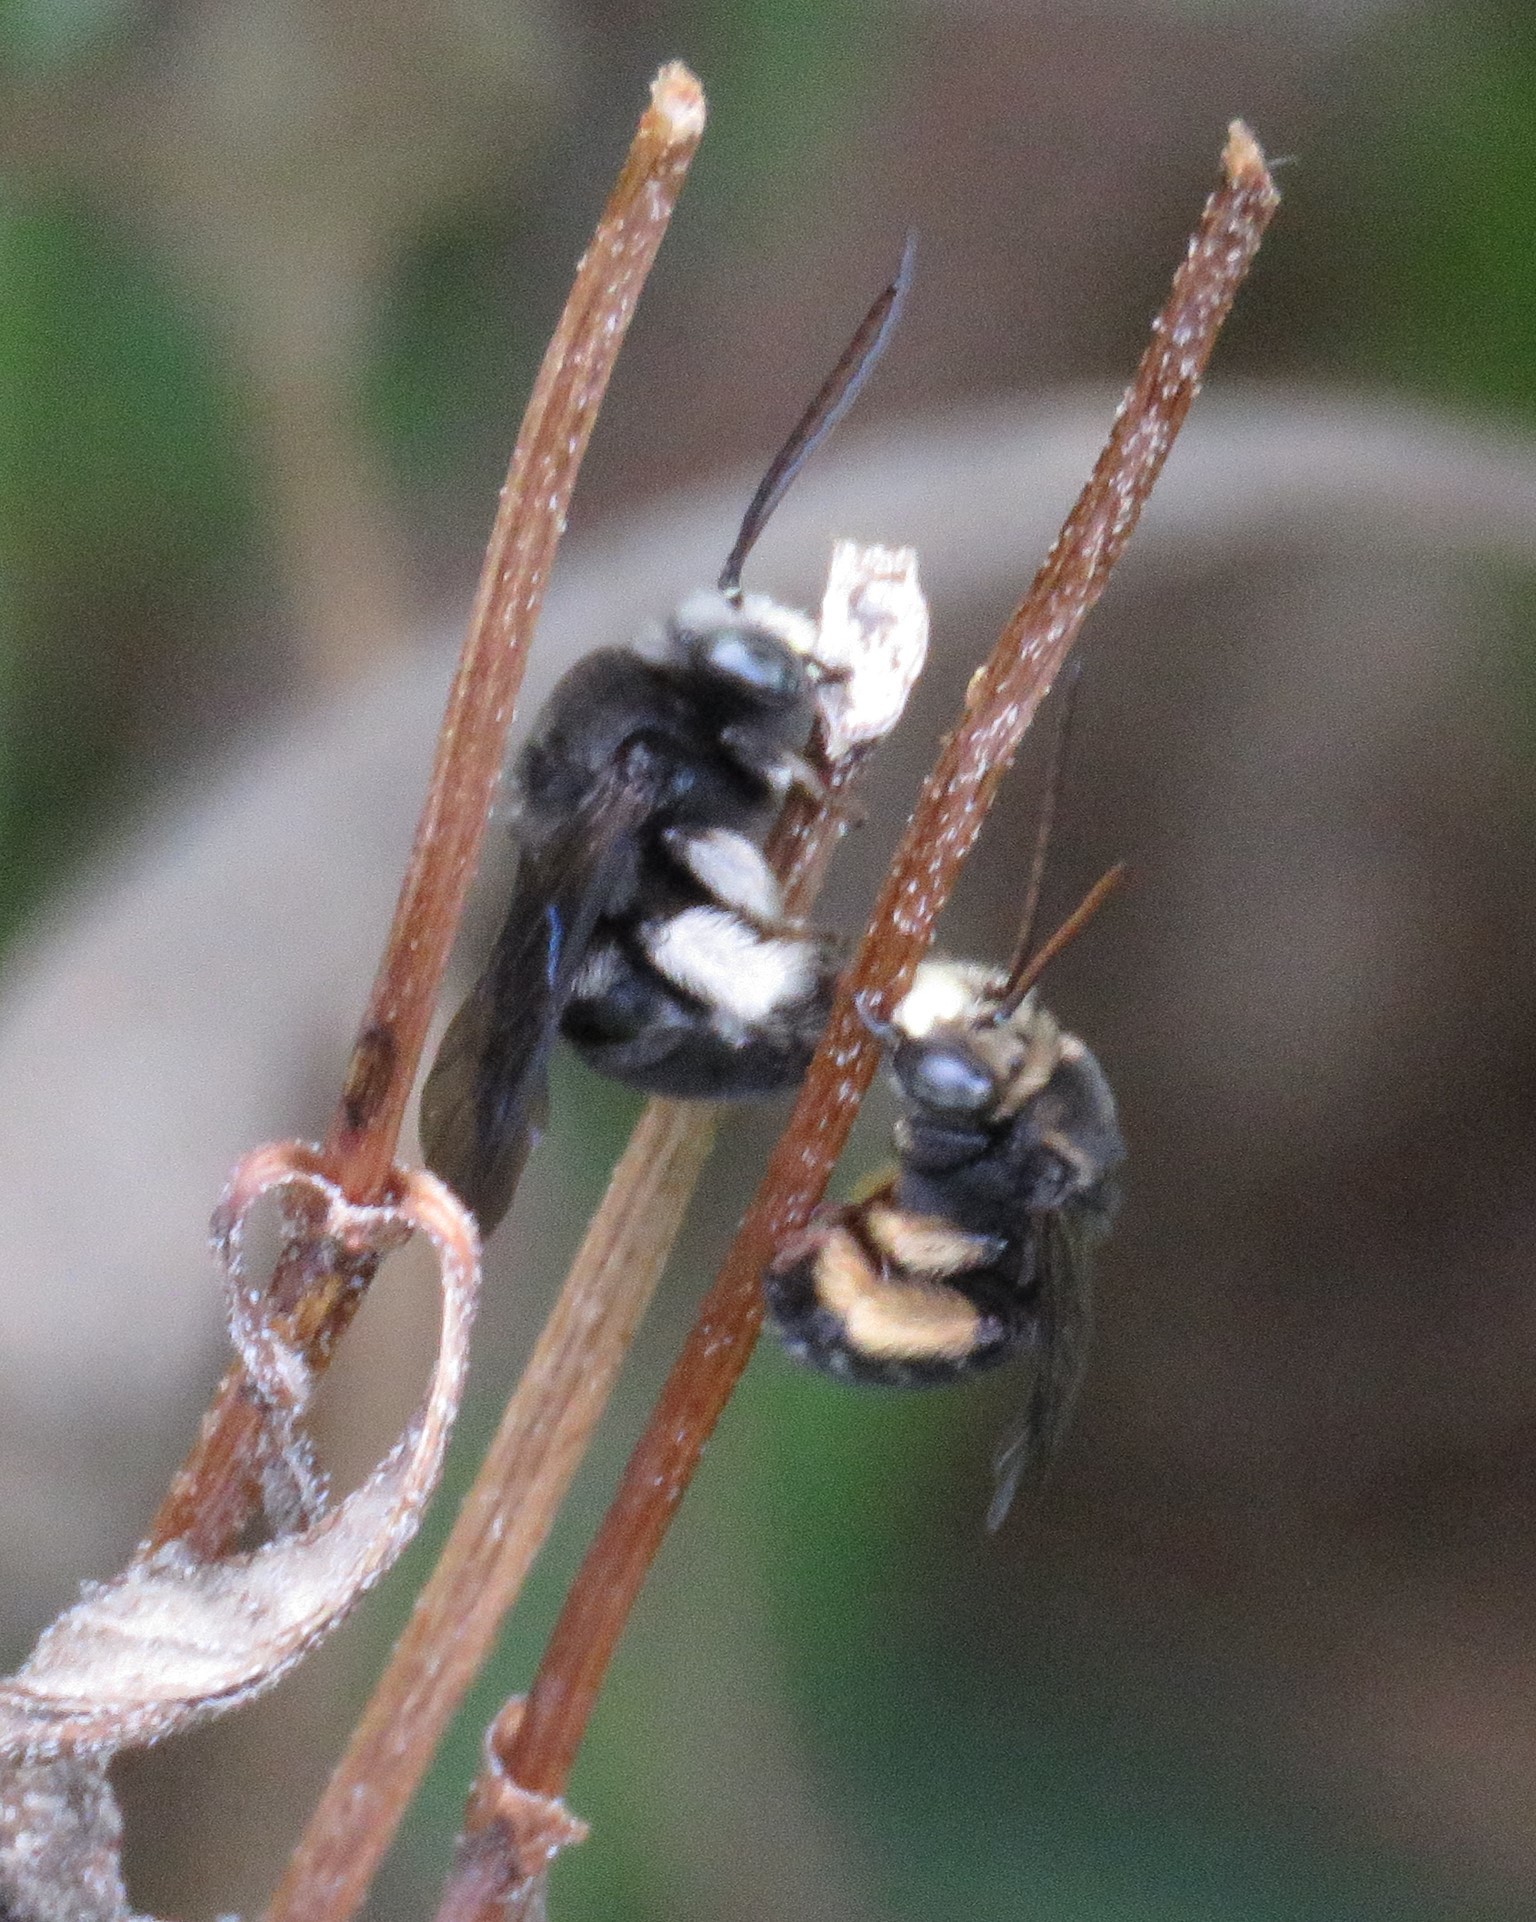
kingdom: Animalia
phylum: Arthropoda
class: Insecta
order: Hymenoptera
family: Apidae
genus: Melissodes
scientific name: Melissodes bimaculatus
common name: Two-spotted long-horned bee
